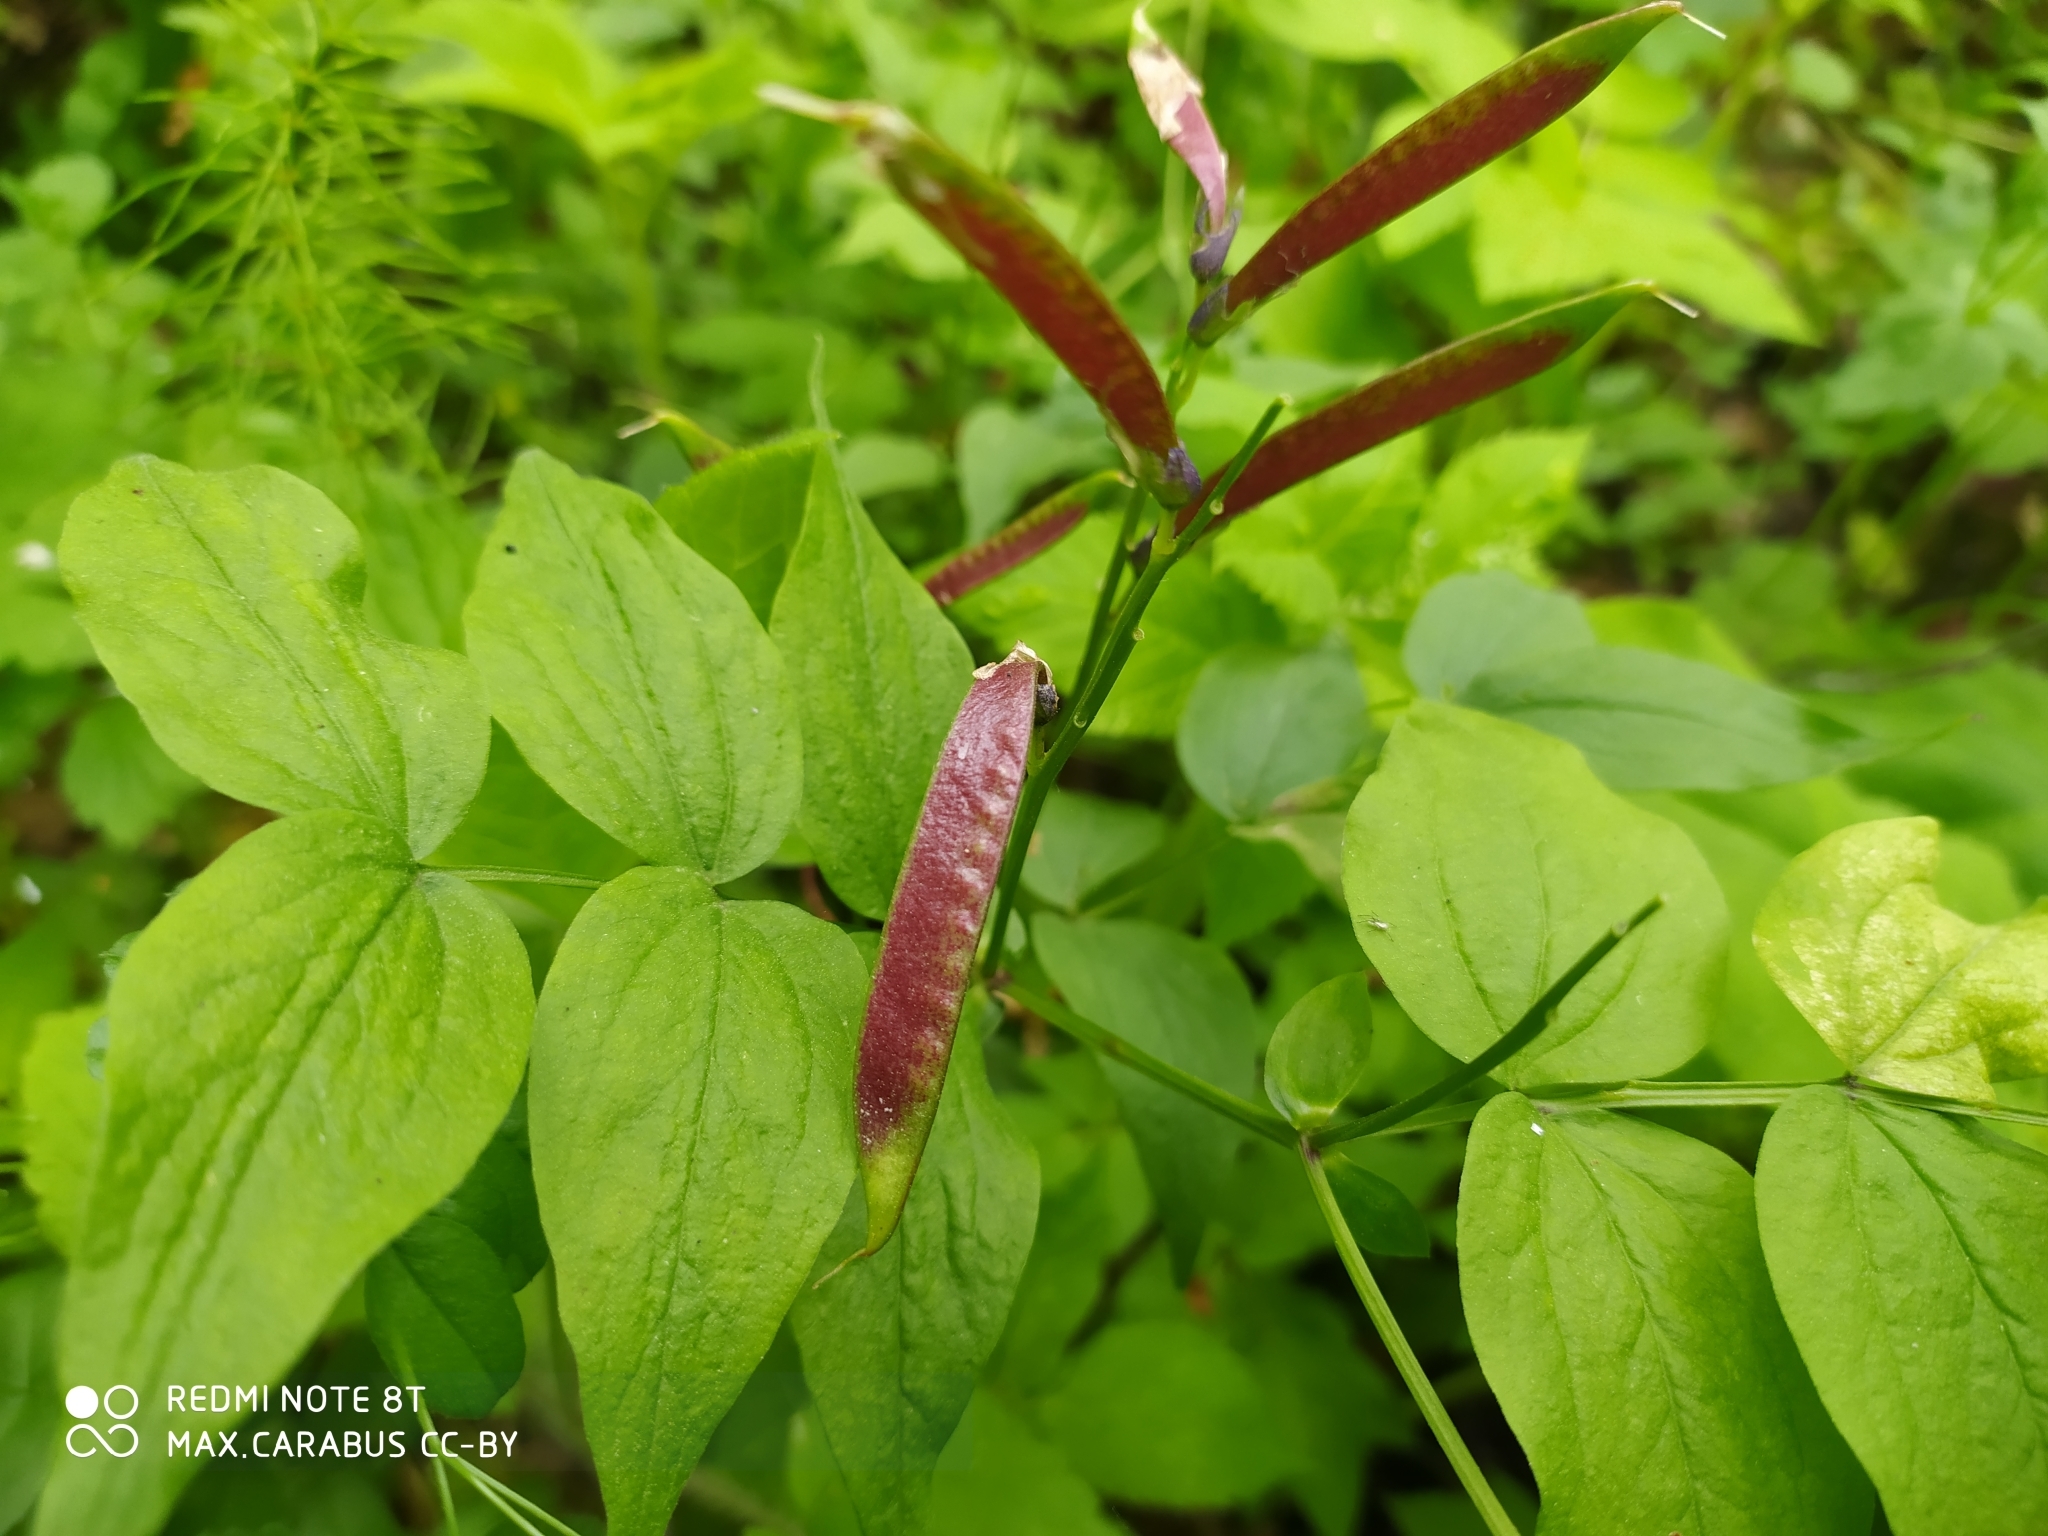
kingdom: Plantae
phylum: Tracheophyta
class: Magnoliopsida
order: Fabales
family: Fabaceae
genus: Lathyrus
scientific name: Lathyrus vernus
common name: Spring pea
